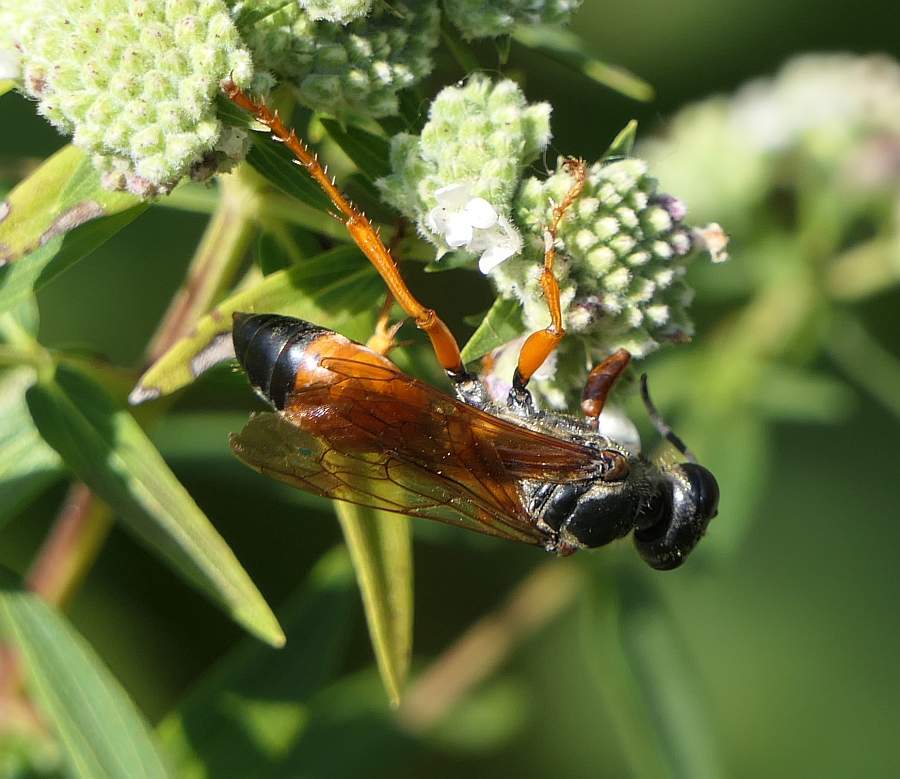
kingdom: Animalia
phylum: Arthropoda
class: Insecta
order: Hymenoptera
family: Sphecidae
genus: Sphex
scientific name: Sphex ichneumoneus
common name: Great golden digger wasp
